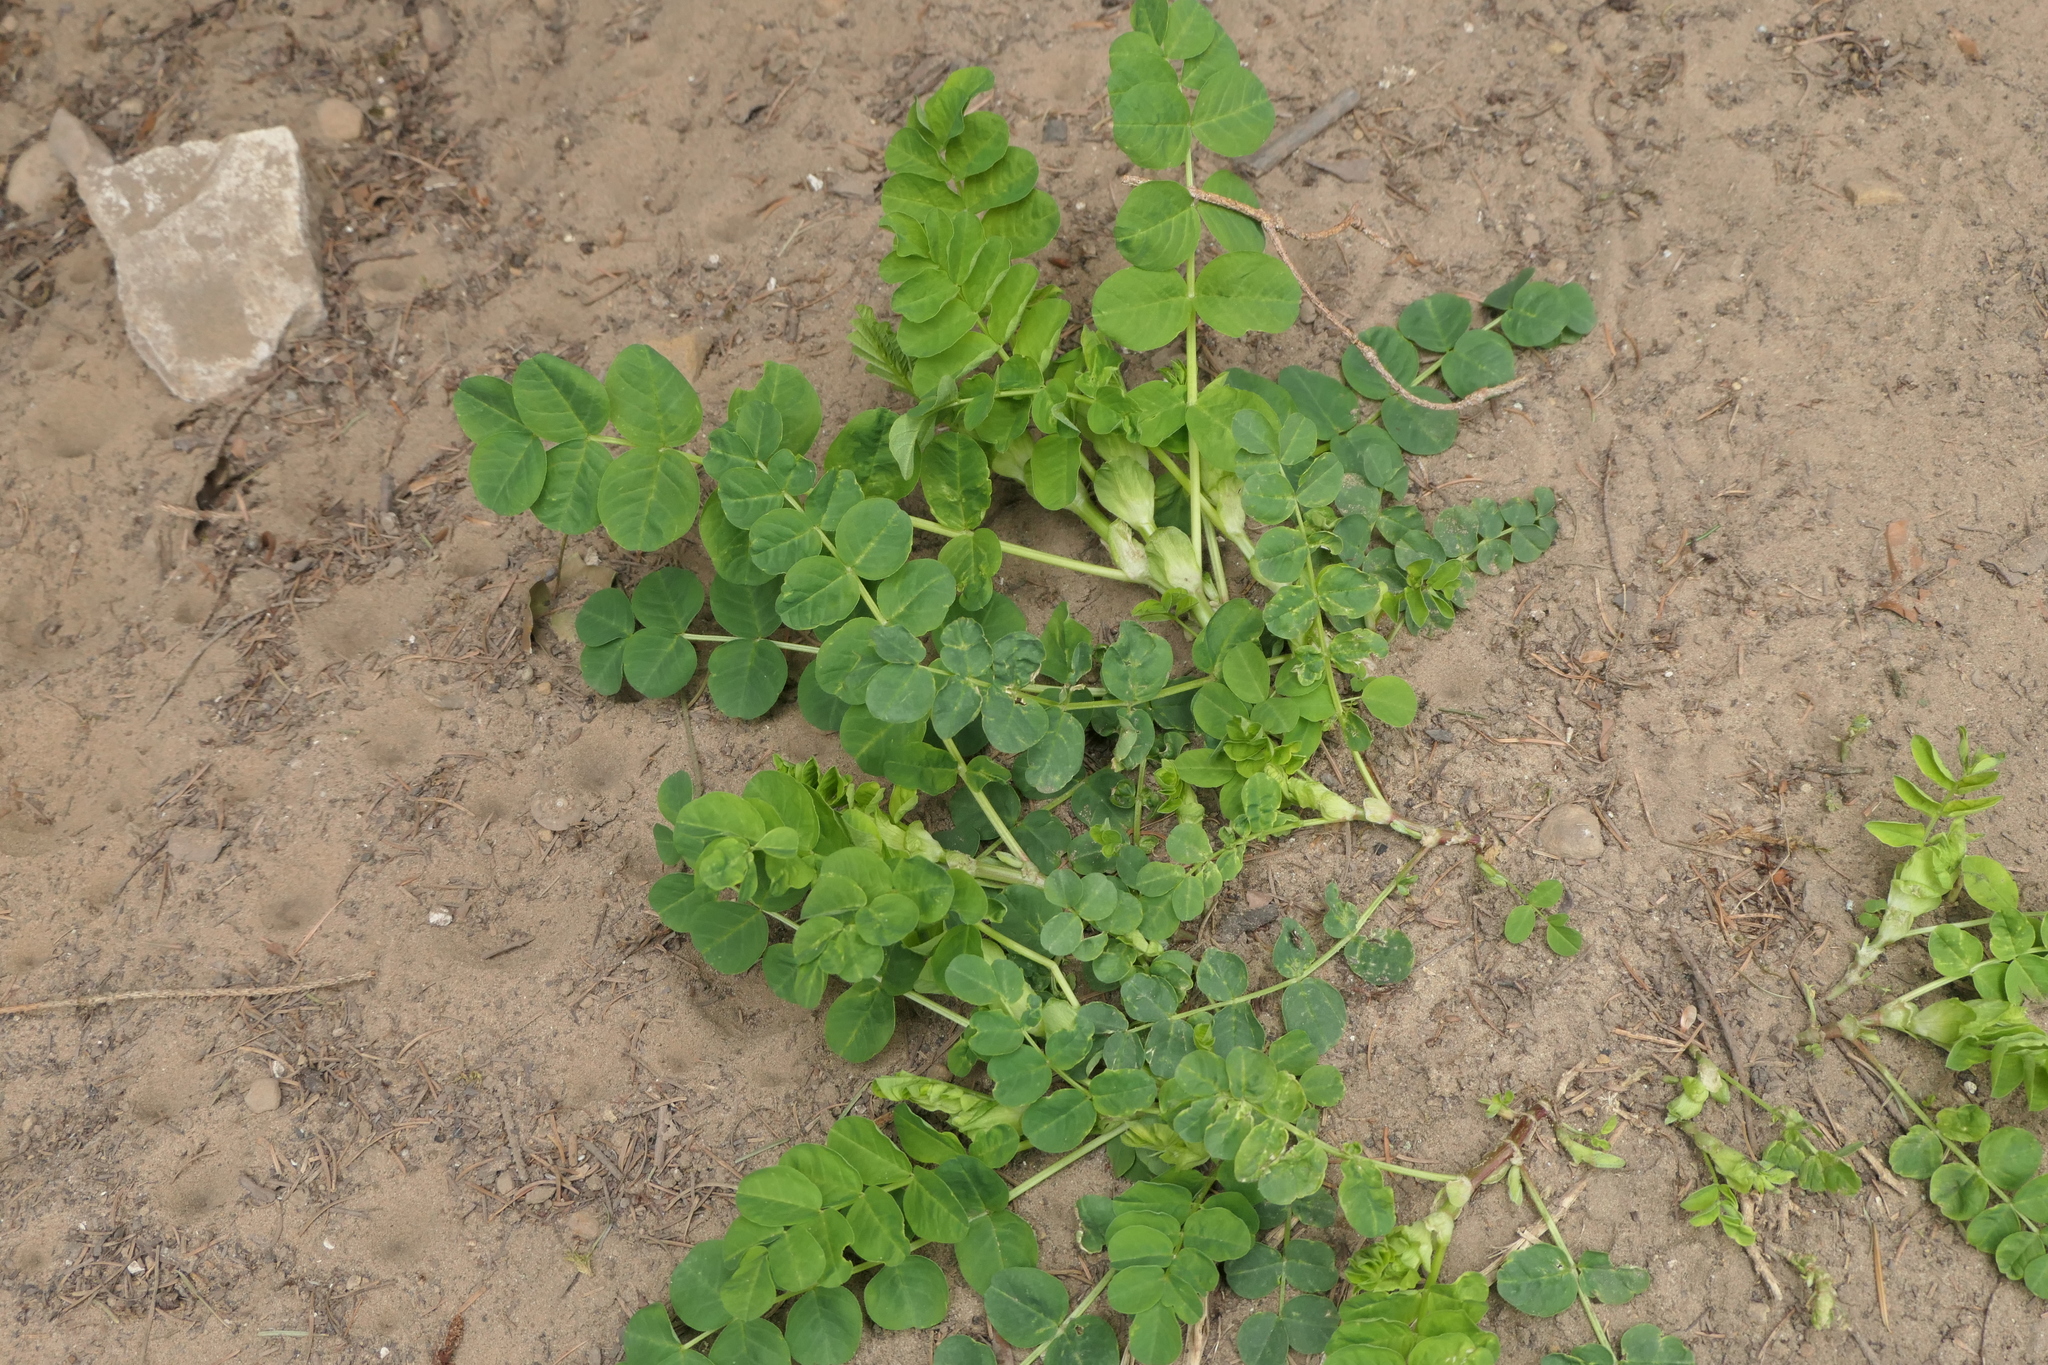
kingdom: Plantae
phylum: Tracheophyta
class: Magnoliopsida
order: Fabales
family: Fabaceae
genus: Astragalus
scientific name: Astragalus glycyphyllos
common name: Wild liquorice
